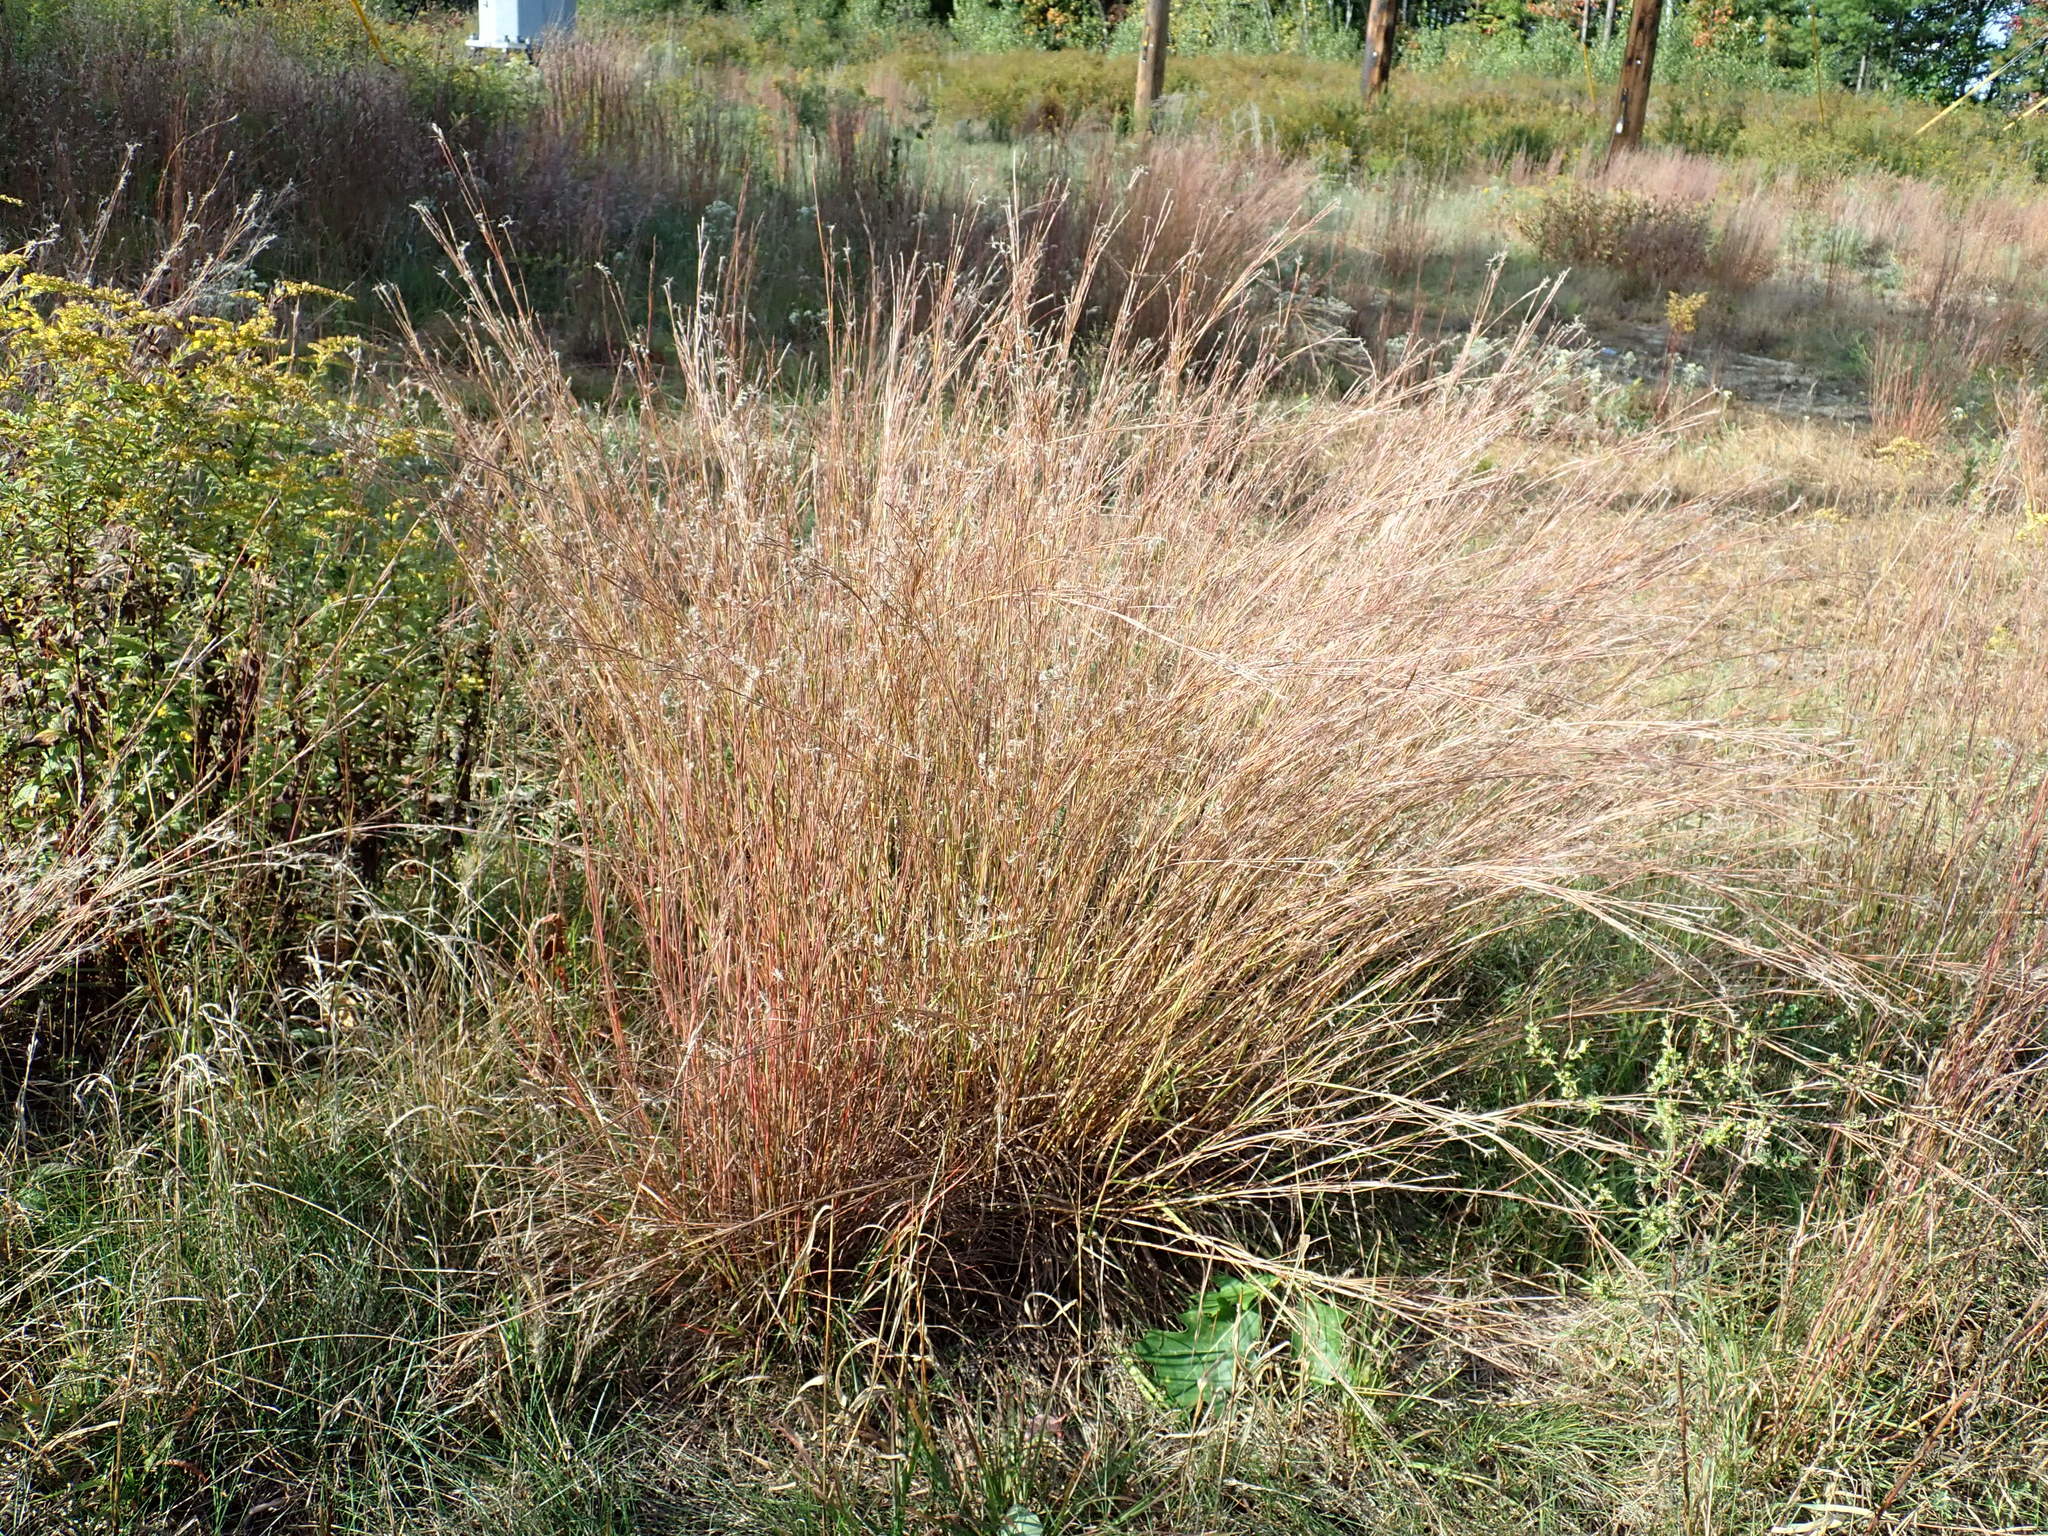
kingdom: Plantae
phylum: Tracheophyta
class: Liliopsida
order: Poales
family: Poaceae
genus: Schizachyrium
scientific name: Schizachyrium scoparium
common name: Little bluestem
